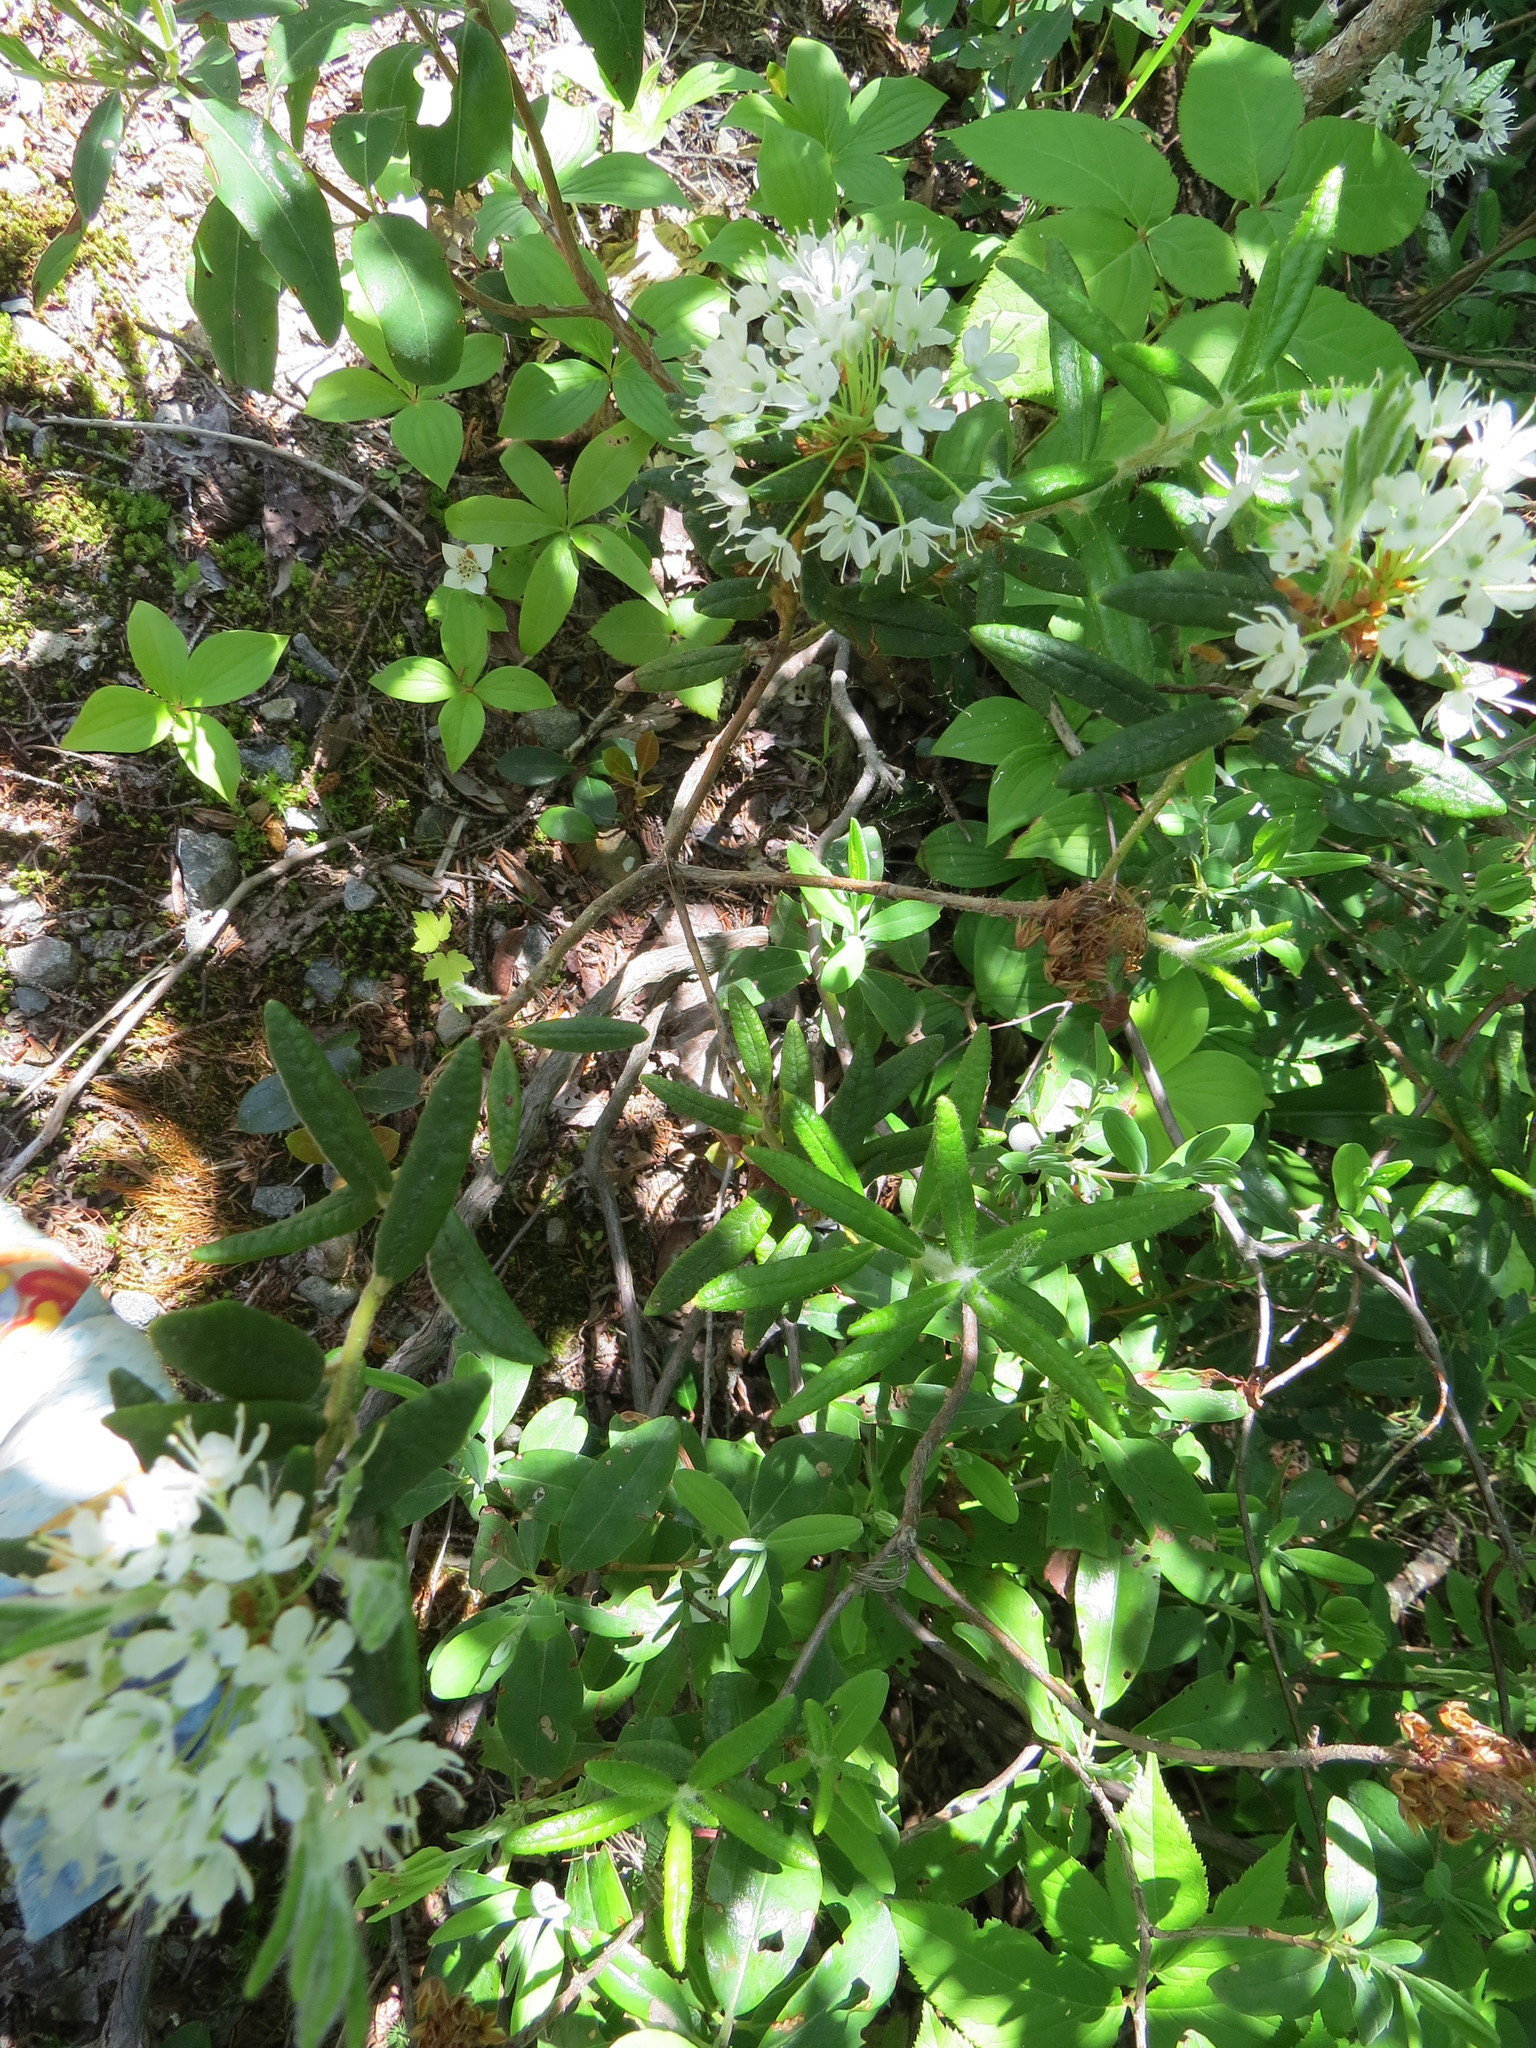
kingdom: Plantae
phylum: Tracheophyta
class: Magnoliopsida
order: Ericales
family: Ericaceae
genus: Rhododendron
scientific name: Rhododendron groenlandicum
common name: Bog labrador tea
